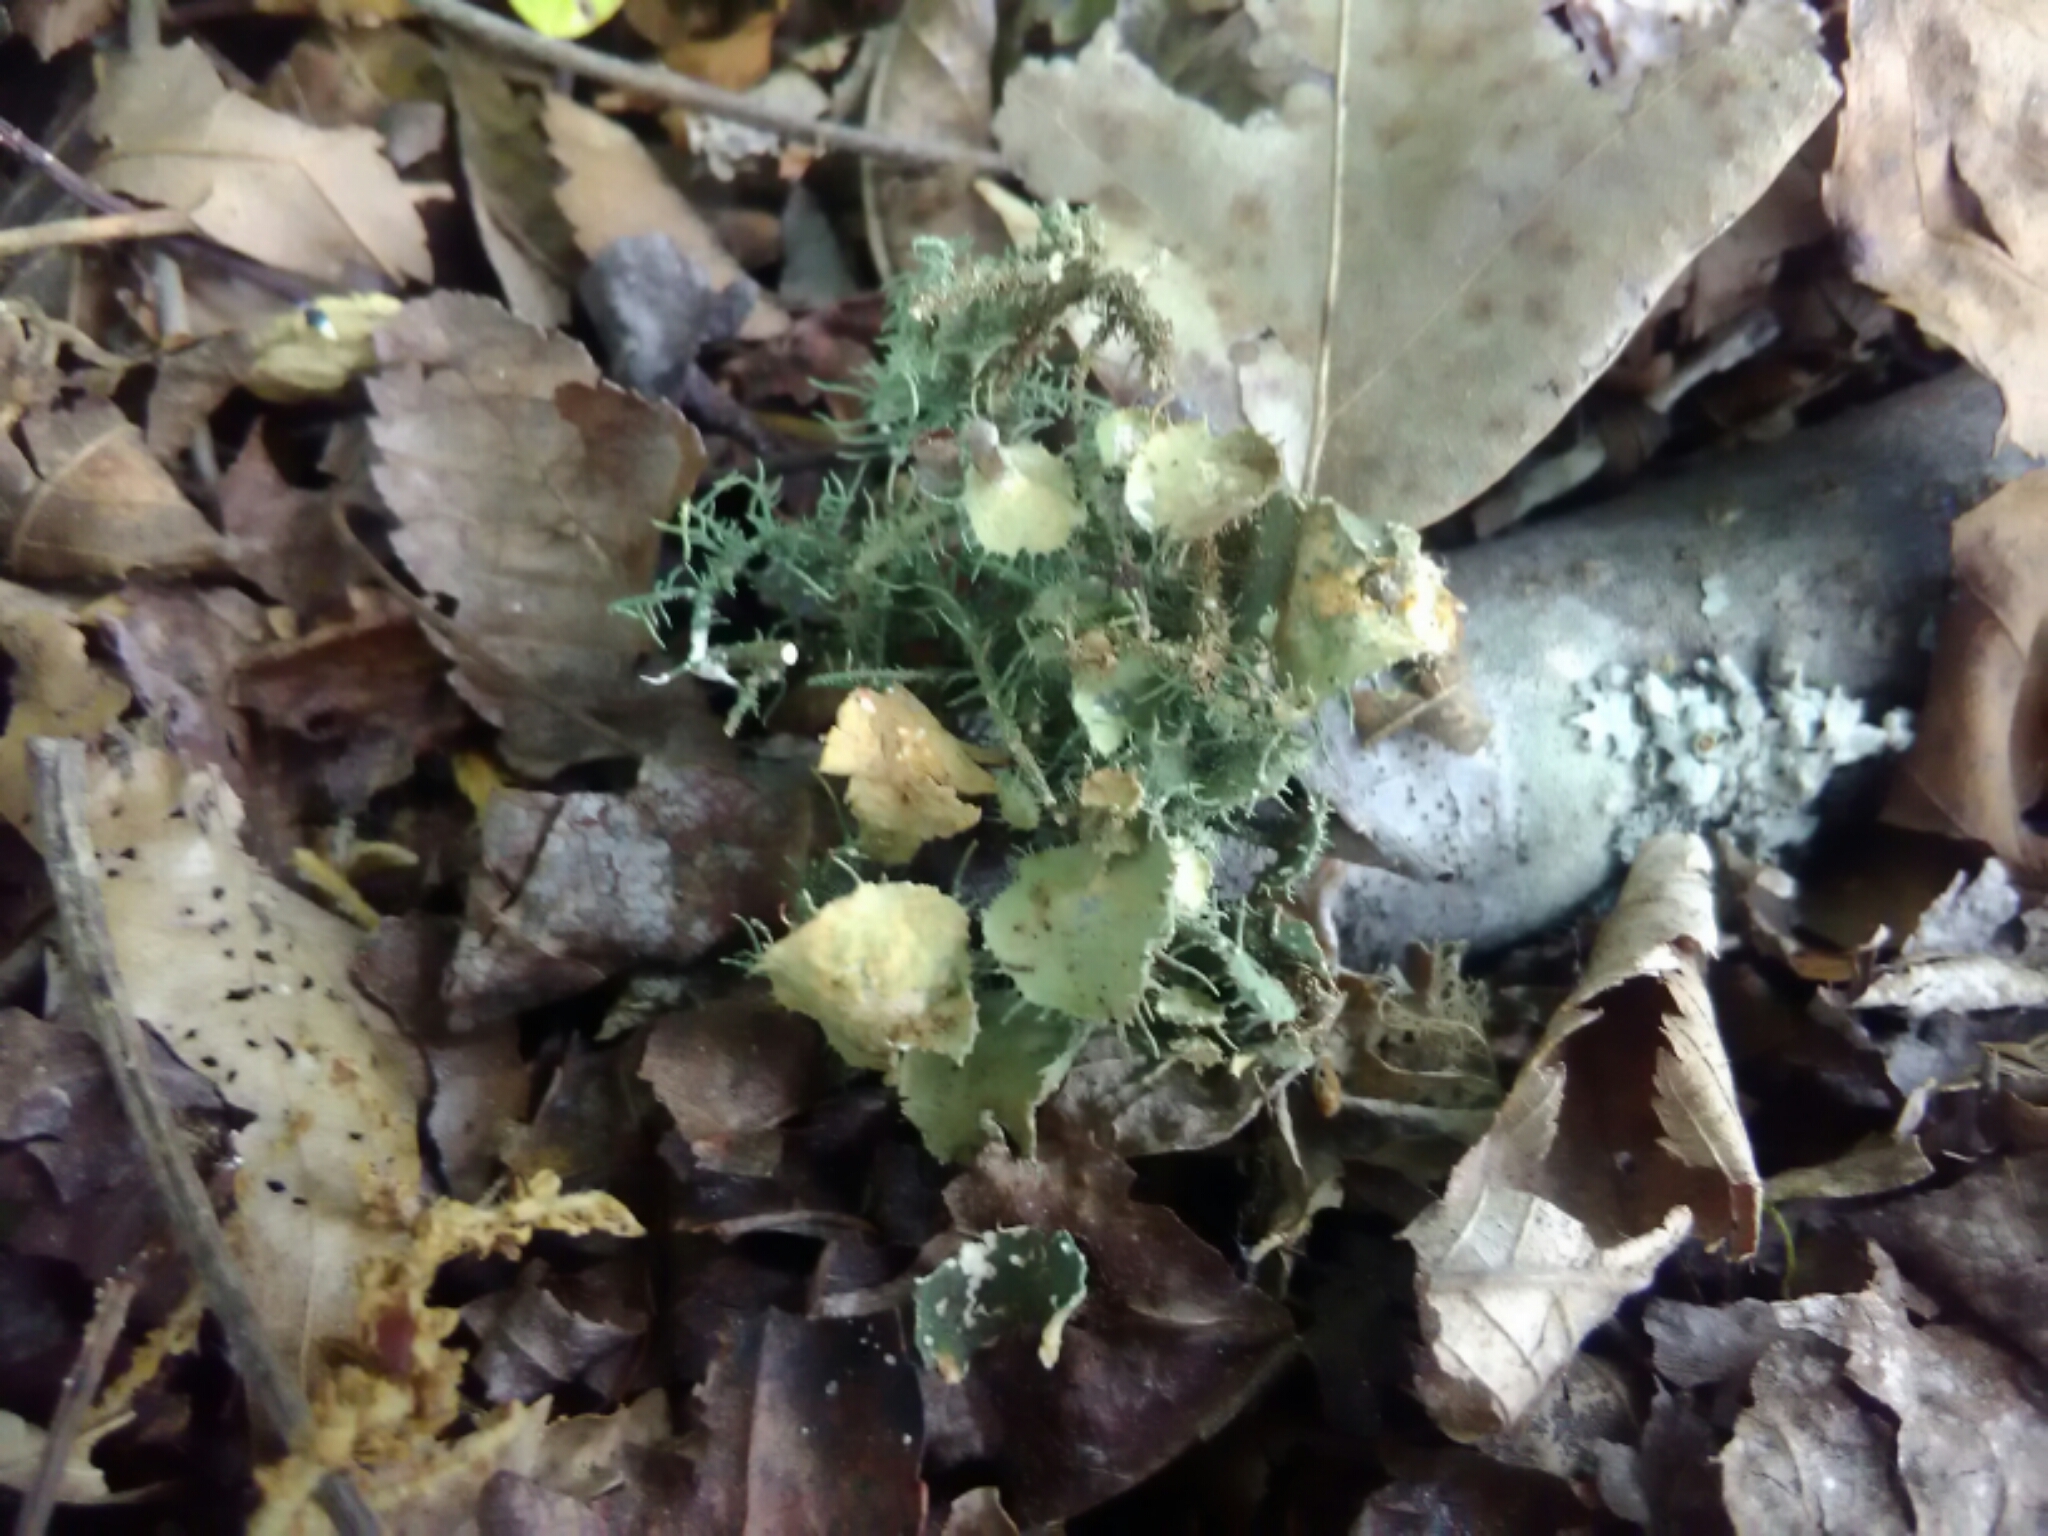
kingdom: Fungi
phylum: Ascomycota
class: Lecanoromycetes
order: Lecanorales
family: Parmeliaceae
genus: Usnea
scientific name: Usnea strigosa
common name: Bushy beard lichen
